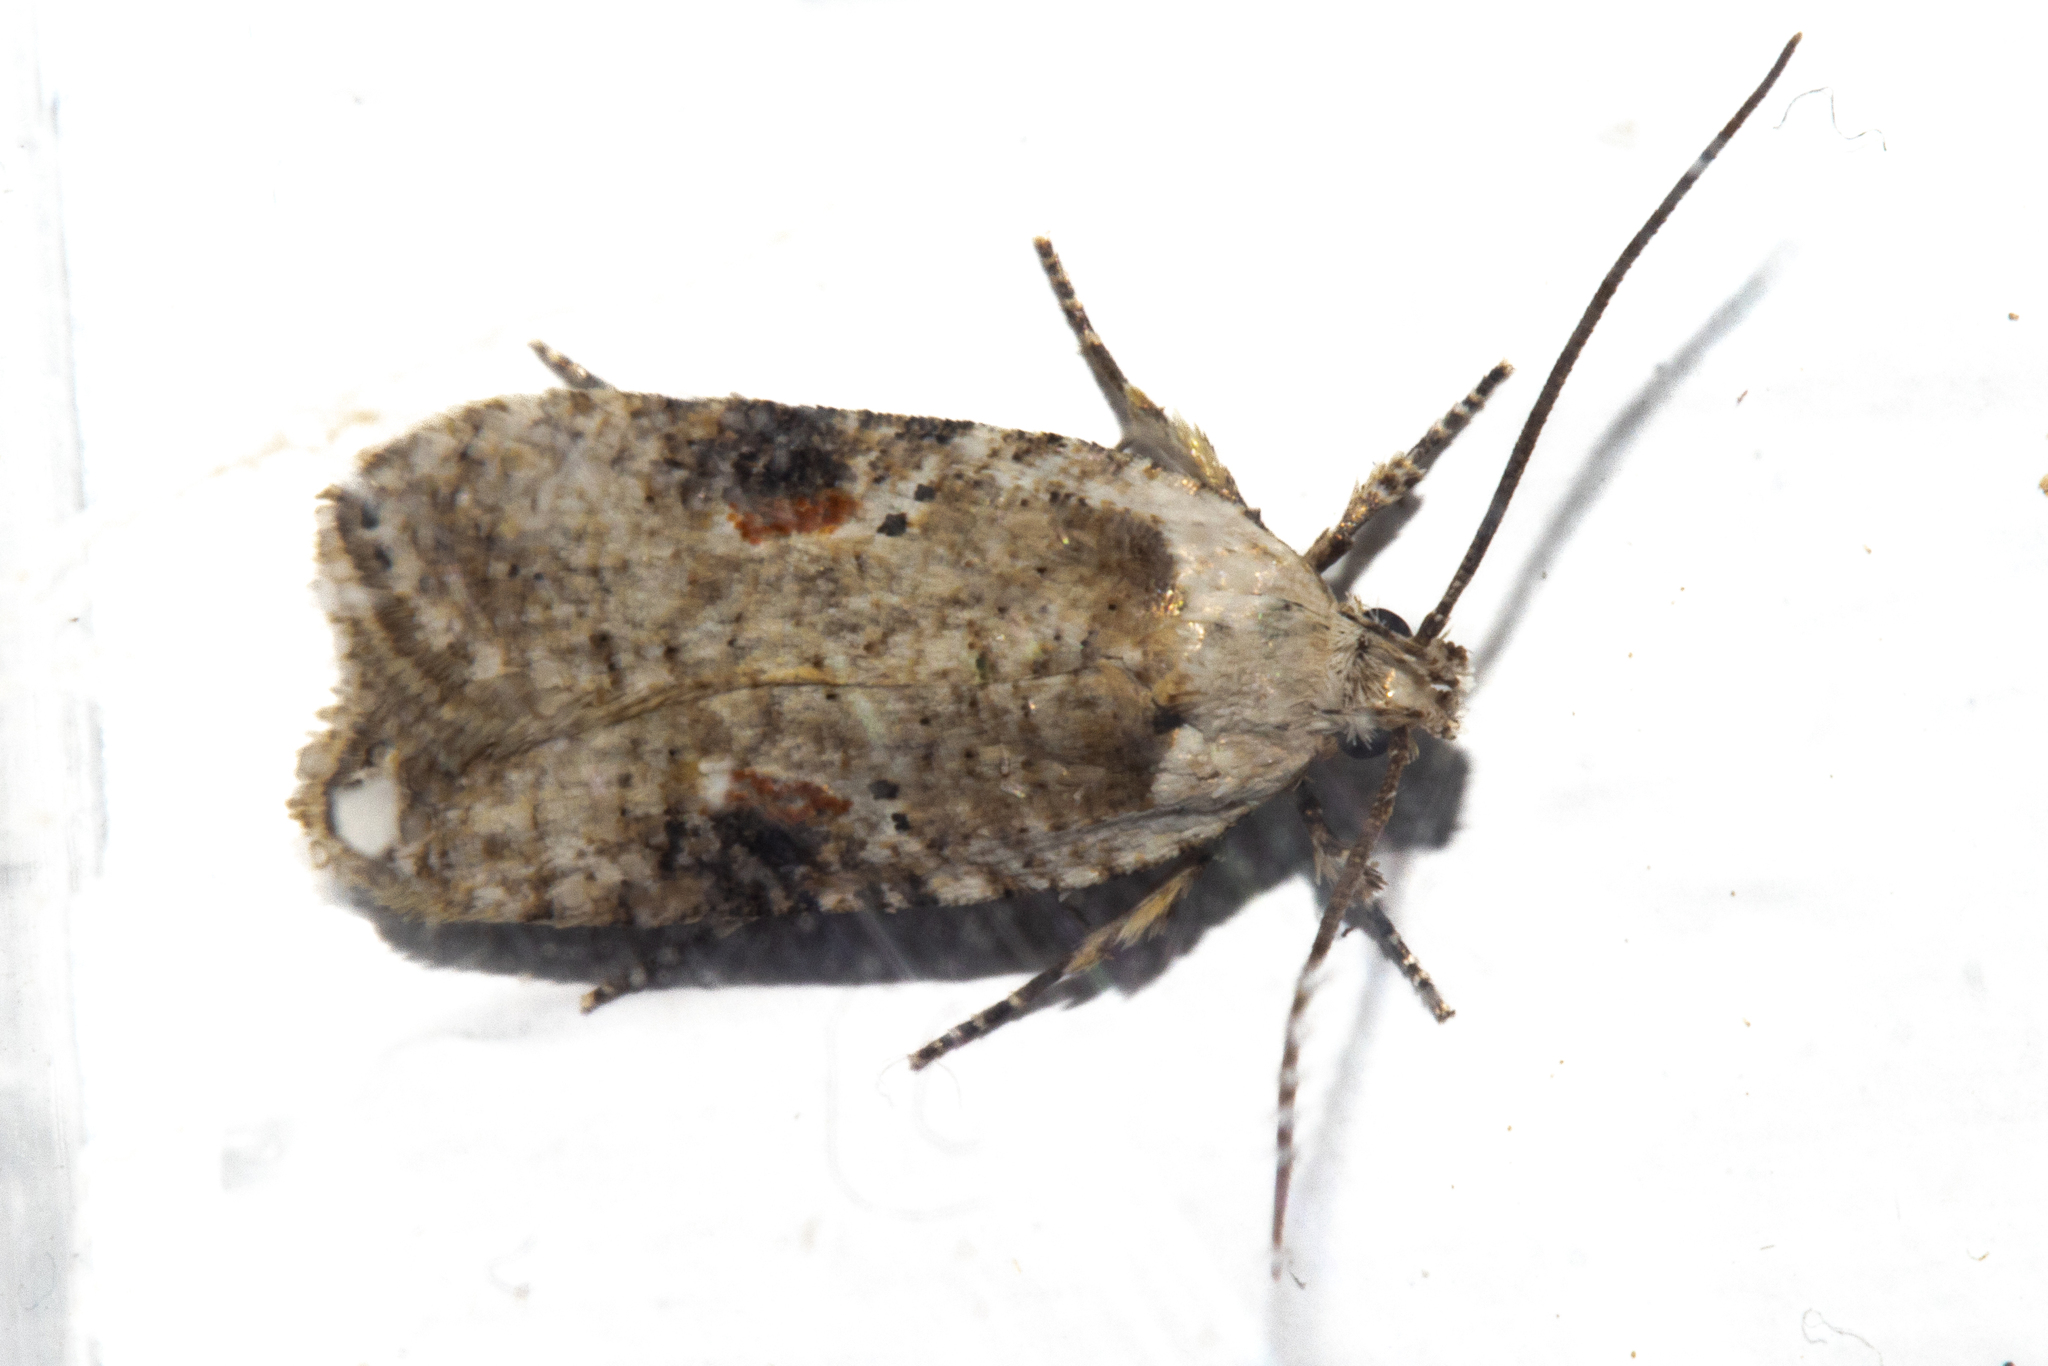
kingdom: Animalia
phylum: Arthropoda
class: Insecta
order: Lepidoptera
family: Depressariidae
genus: Agonopterix
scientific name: Agonopterix alstroemeriana
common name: Moth
